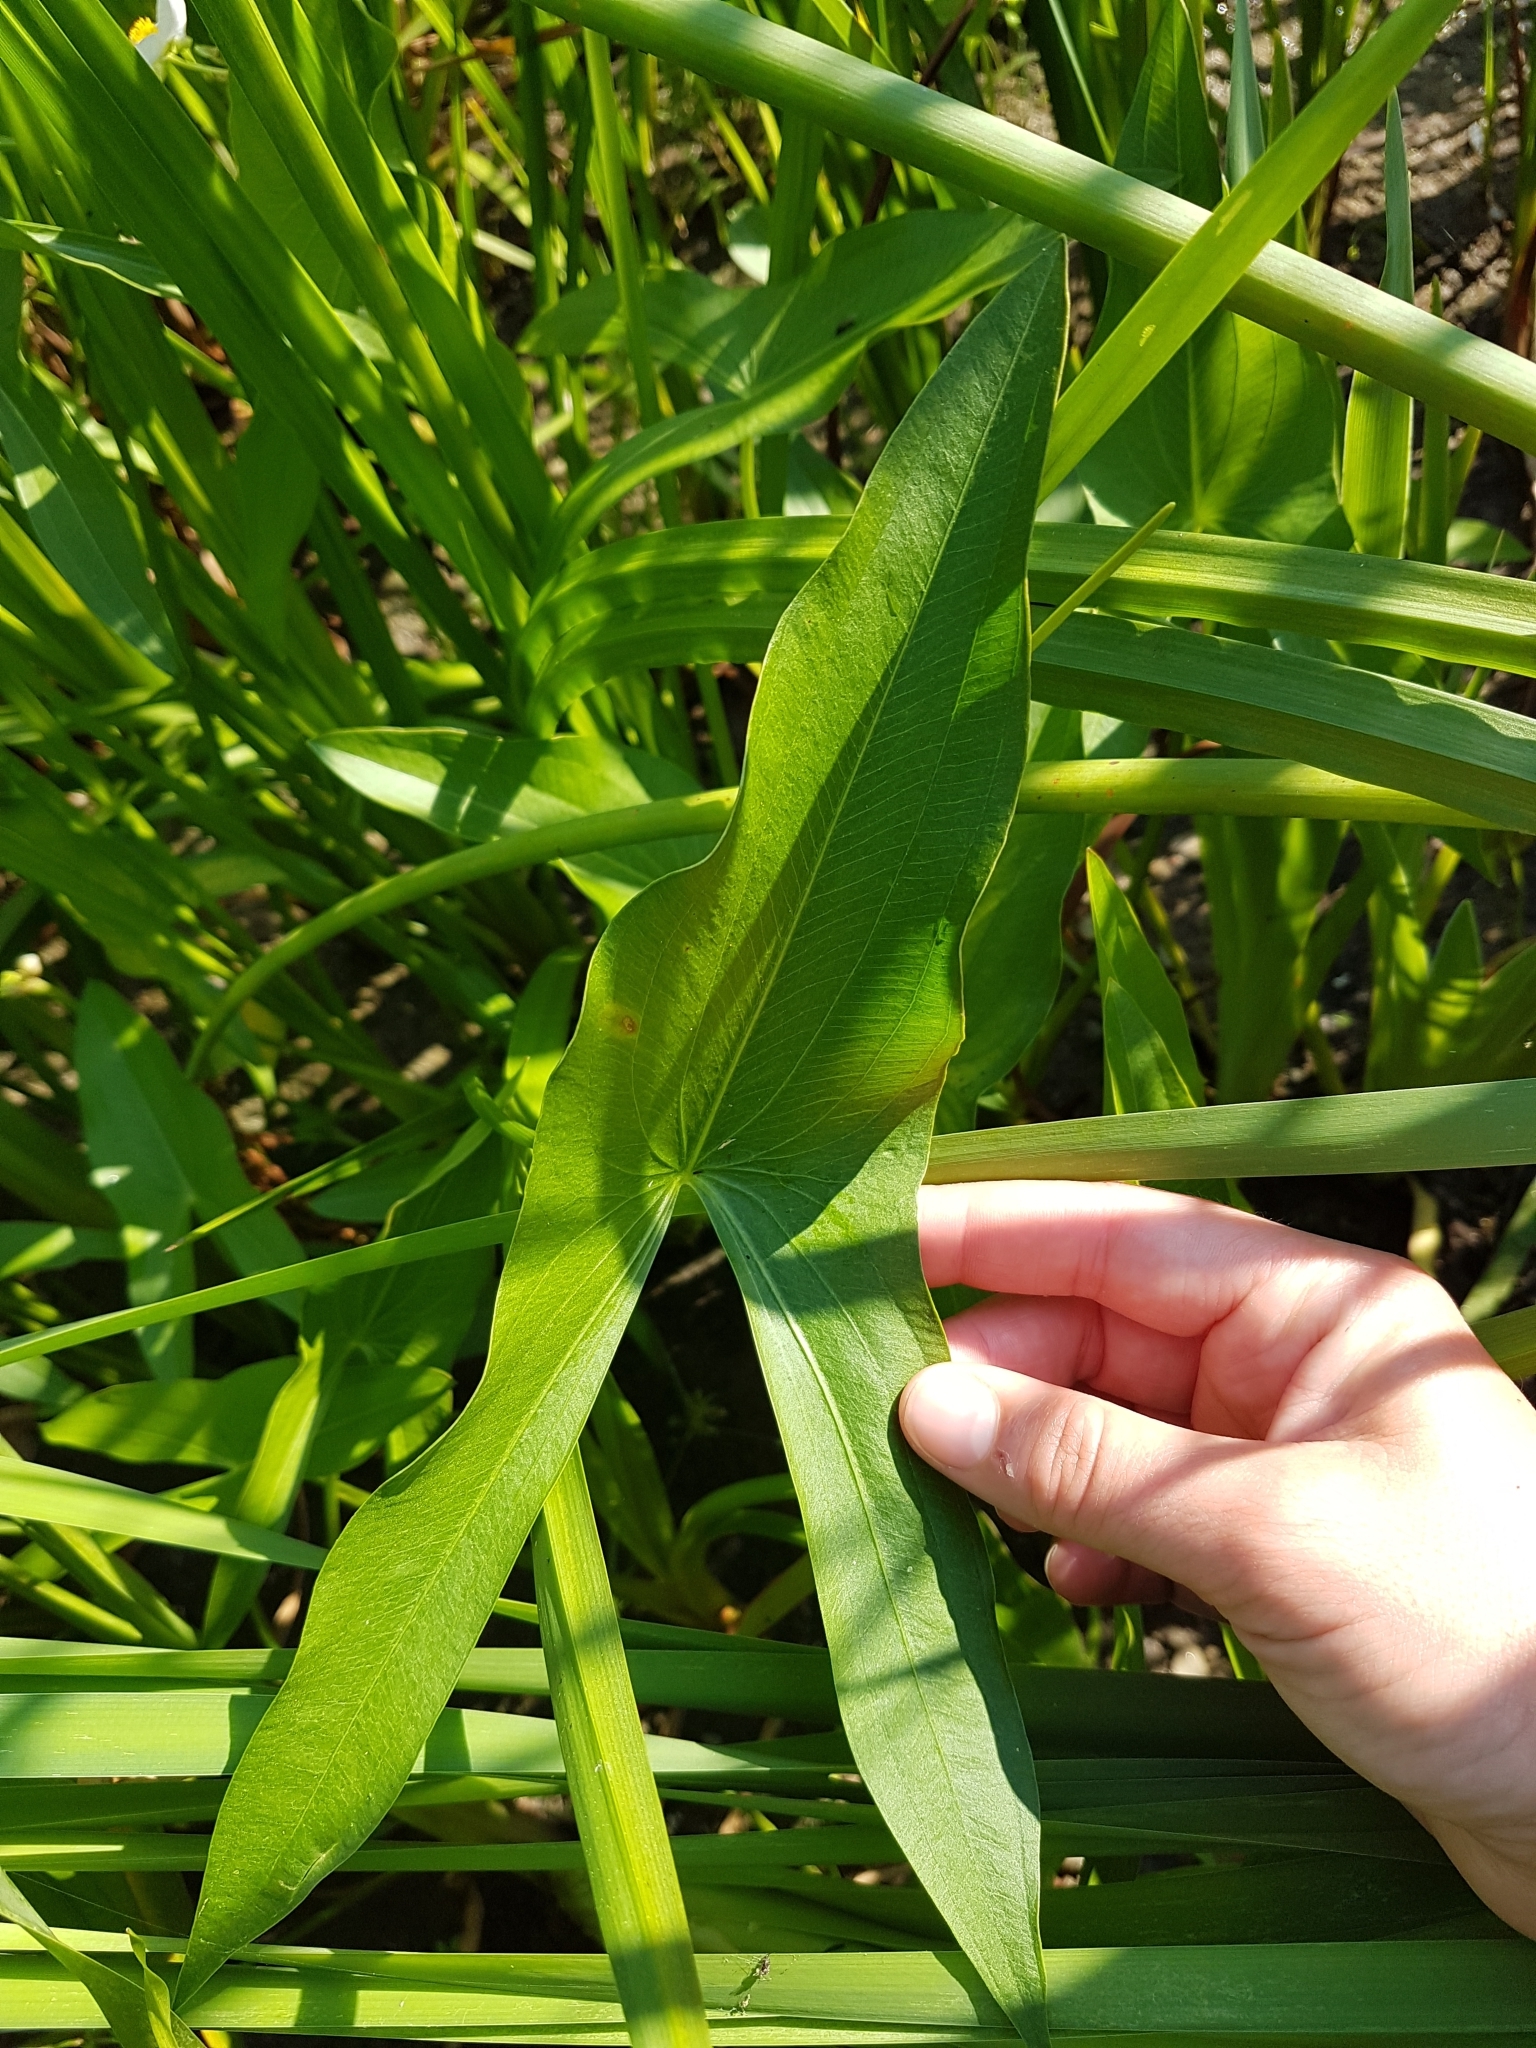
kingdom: Plantae
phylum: Tracheophyta
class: Liliopsida
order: Alismatales
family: Alismataceae
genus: Sagittaria
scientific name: Sagittaria latifolia
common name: Duck-potato
